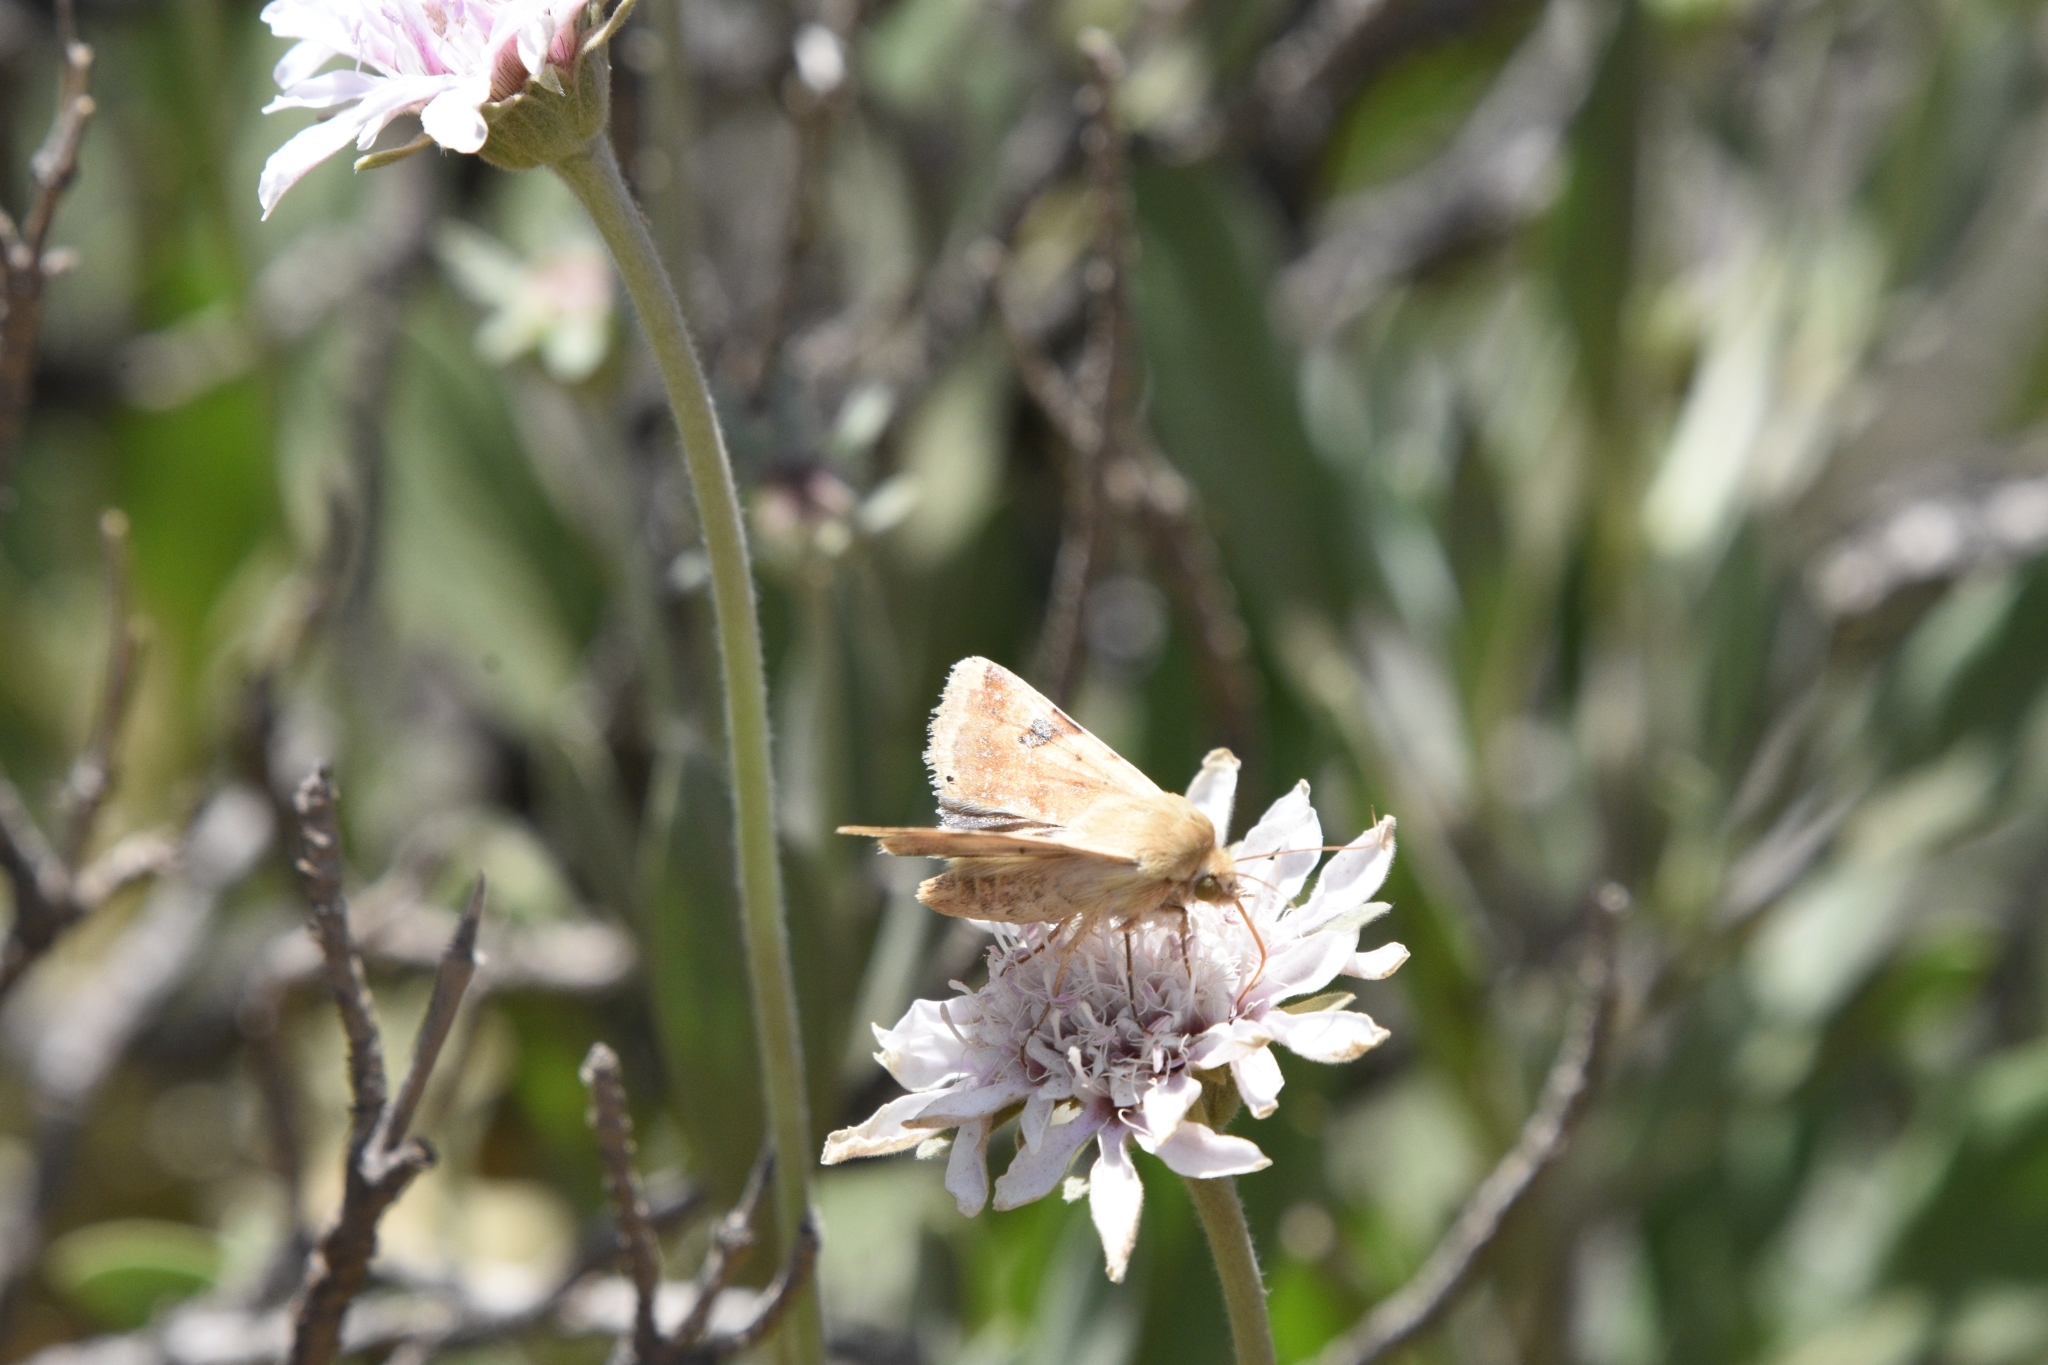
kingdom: Animalia
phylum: Arthropoda
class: Insecta
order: Lepidoptera
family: Noctuidae
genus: Heliothis
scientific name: Heliothis peltigera
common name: Bordered straw
